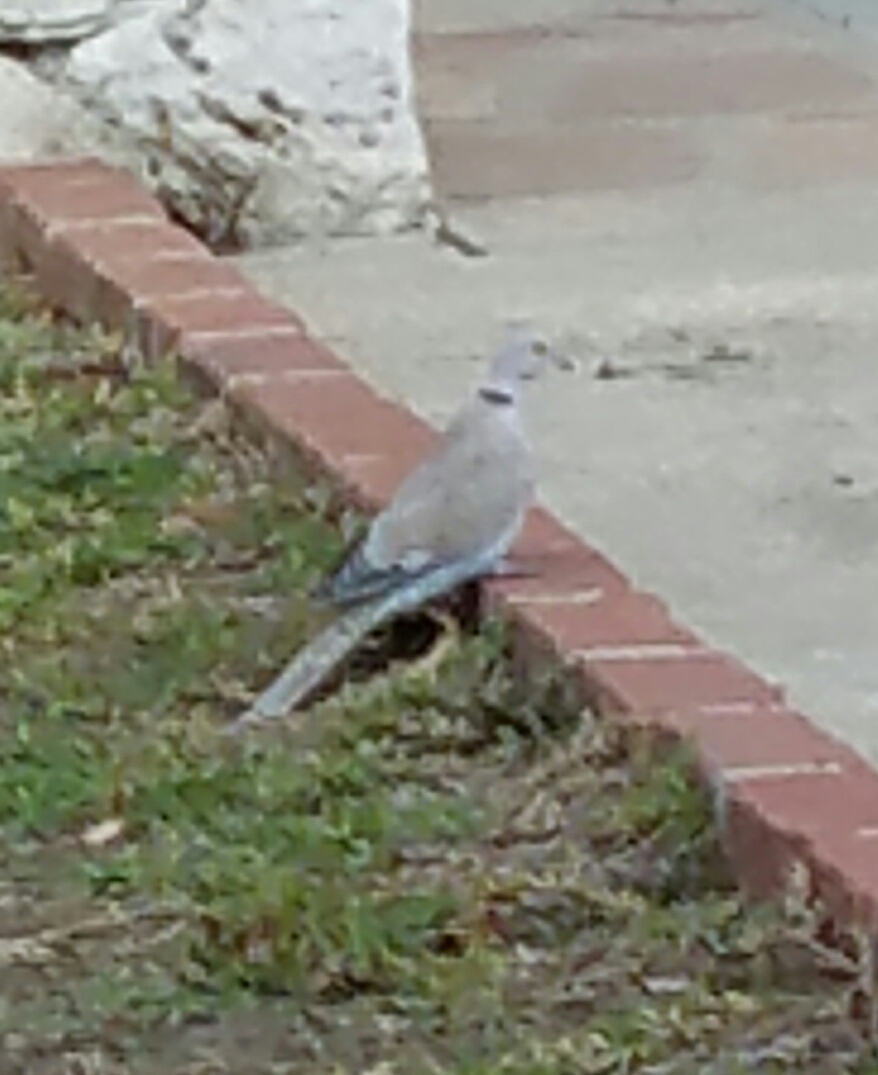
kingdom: Animalia
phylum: Chordata
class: Aves
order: Columbiformes
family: Columbidae
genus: Streptopelia
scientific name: Streptopelia decaocto
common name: Eurasian collared dove
